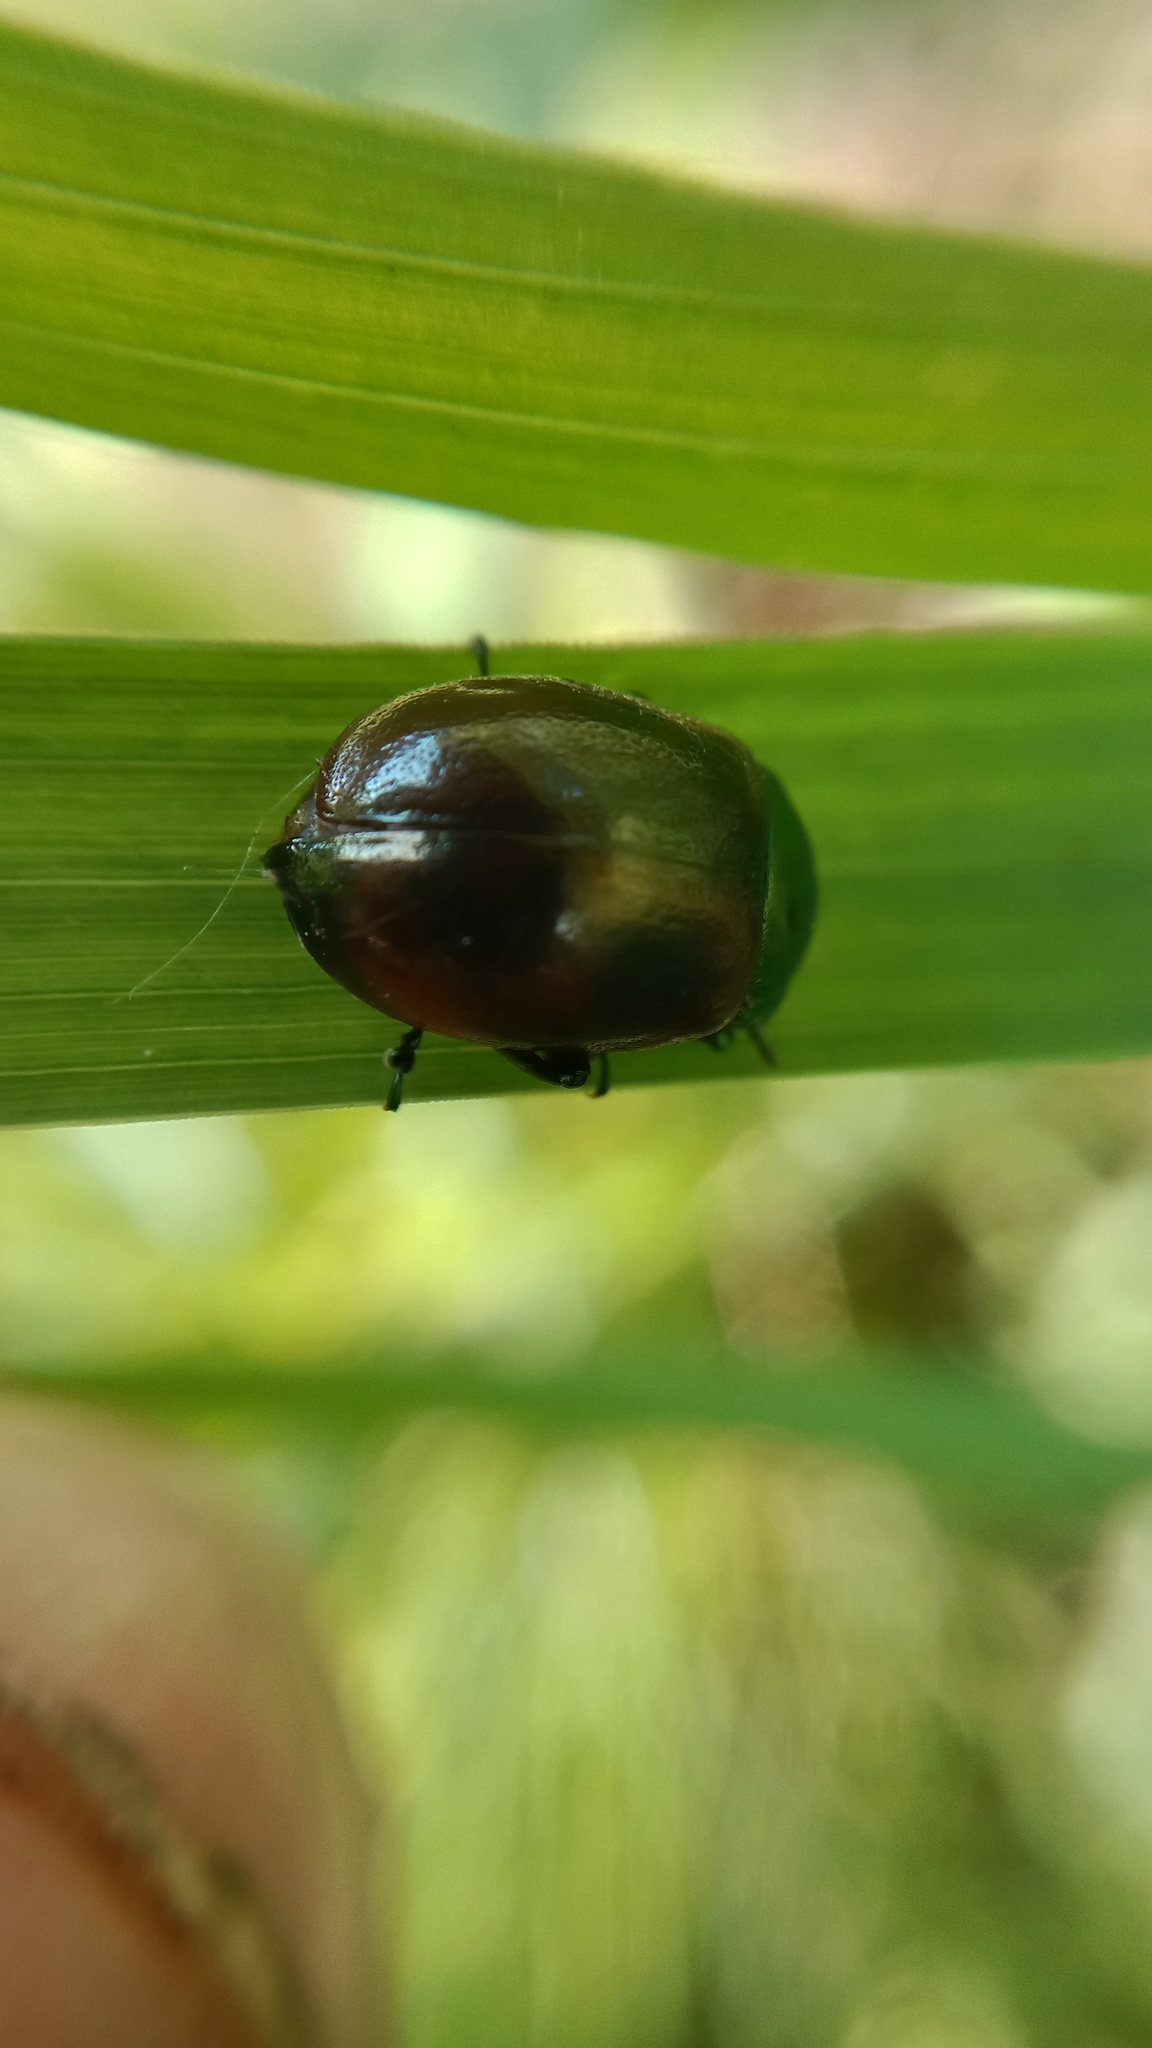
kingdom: Animalia
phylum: Arthropoda
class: Insecta
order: Coleoptera
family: Chrysomelidae
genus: Chrysomela
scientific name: Chrysomela polita
